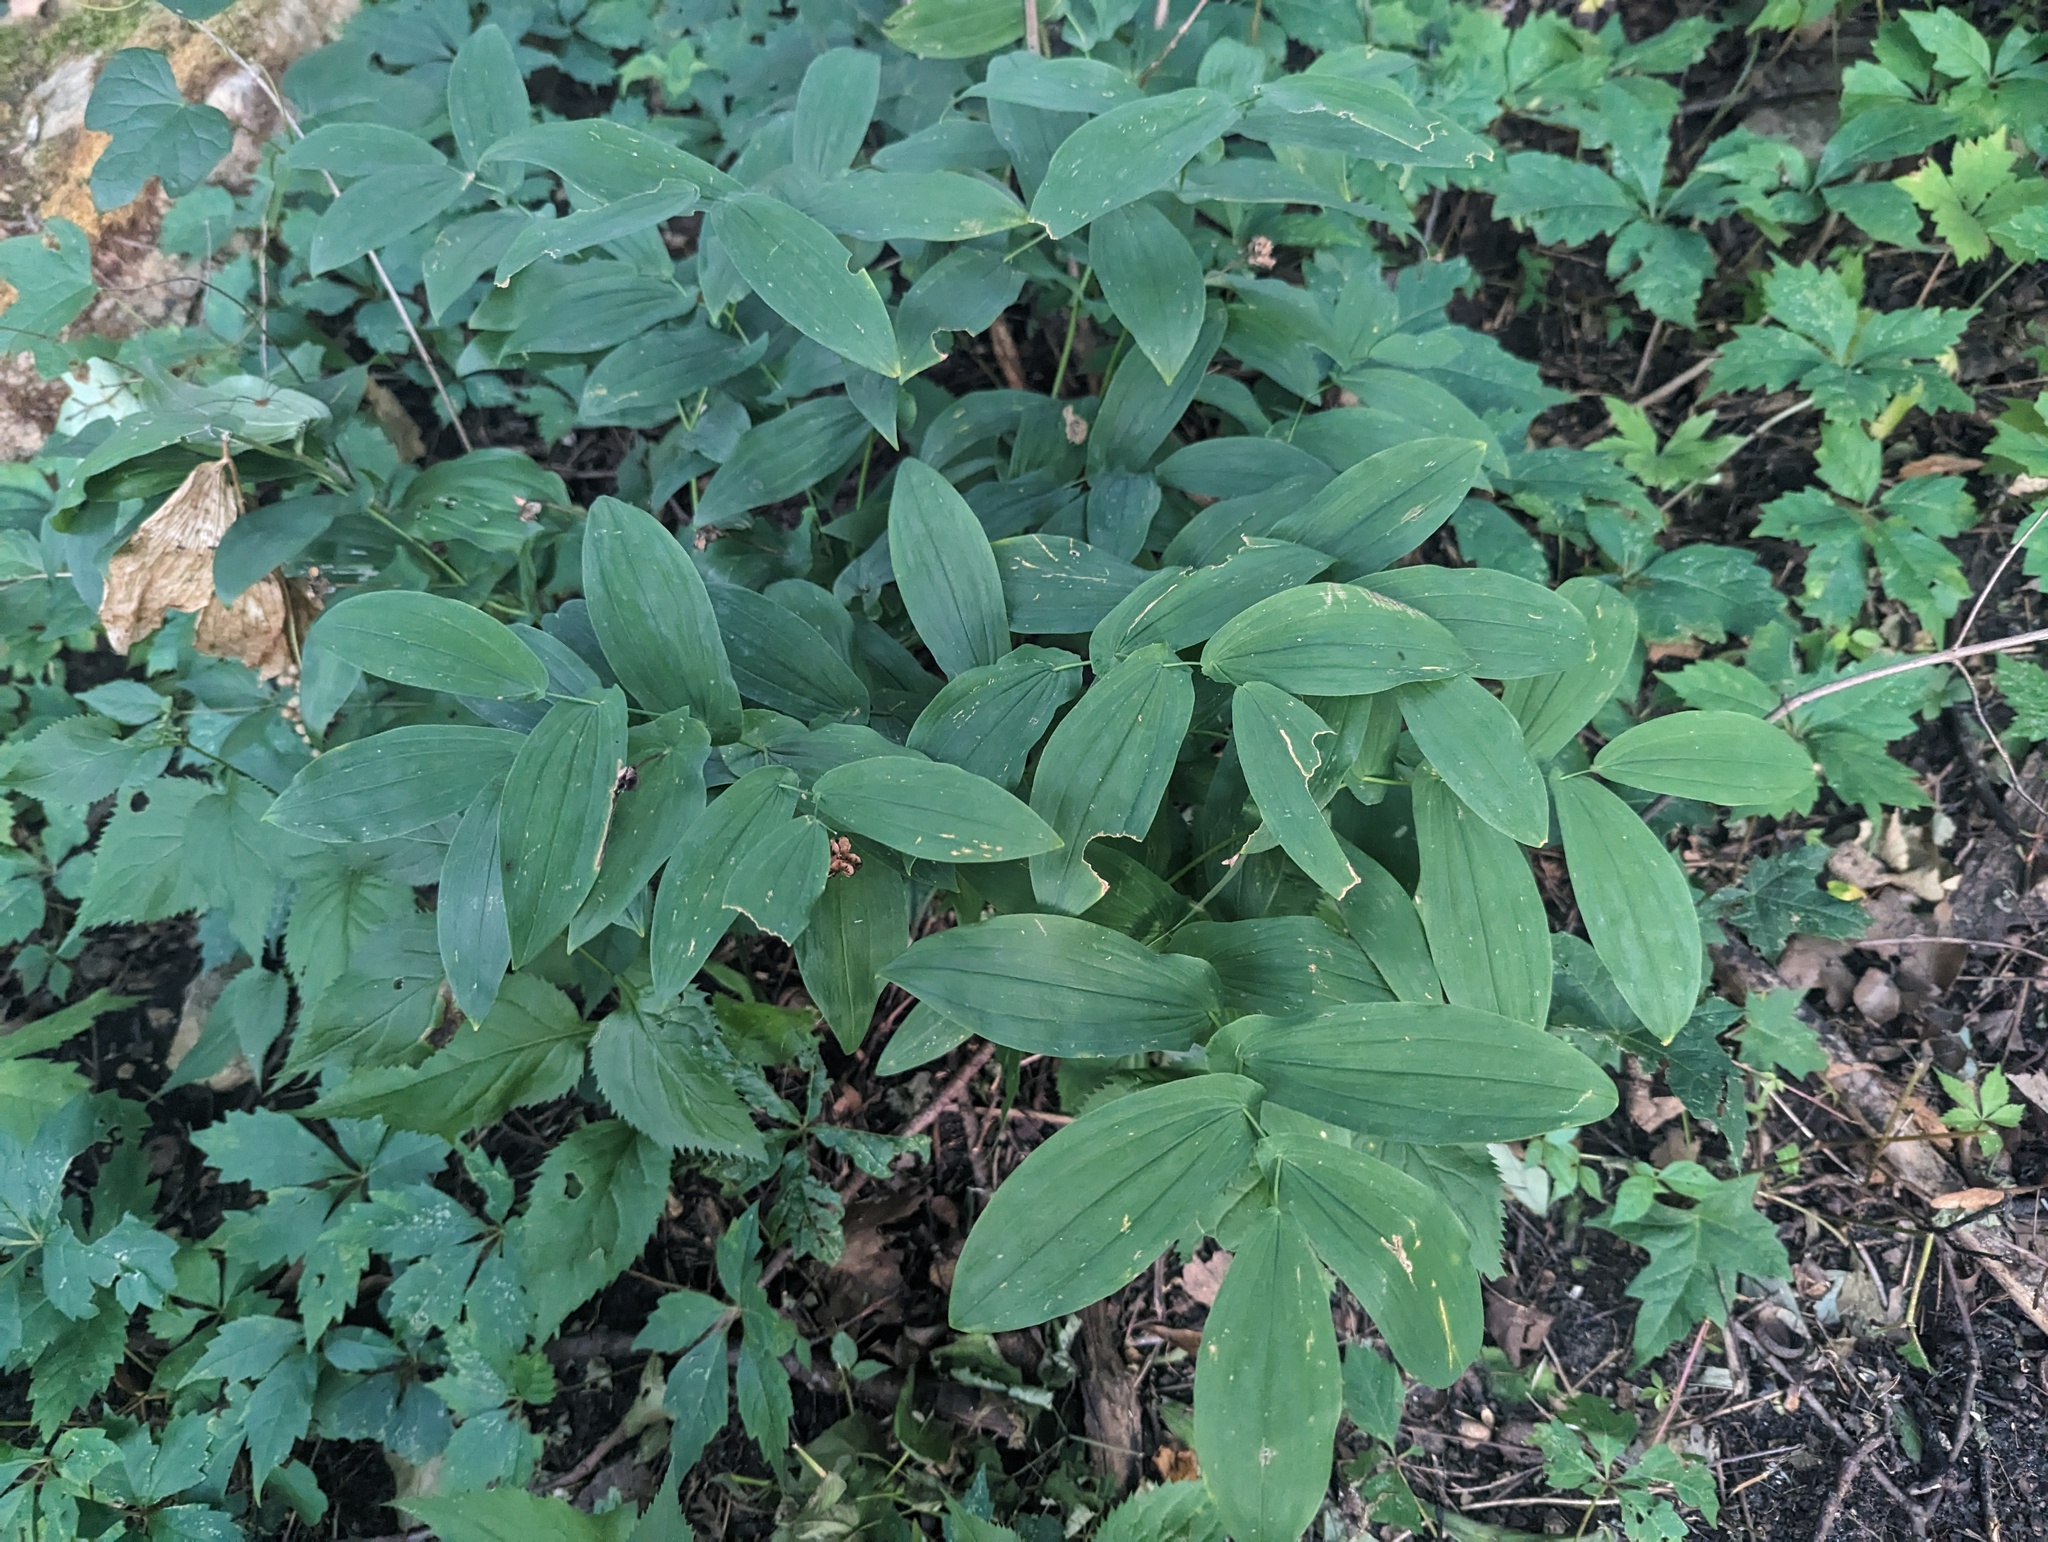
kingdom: Plantae
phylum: Tracheophyta
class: Liliopsida
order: Liliales
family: Colchicaceae
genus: Uvularia
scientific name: Uvularia grandiflora
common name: Bellwort
